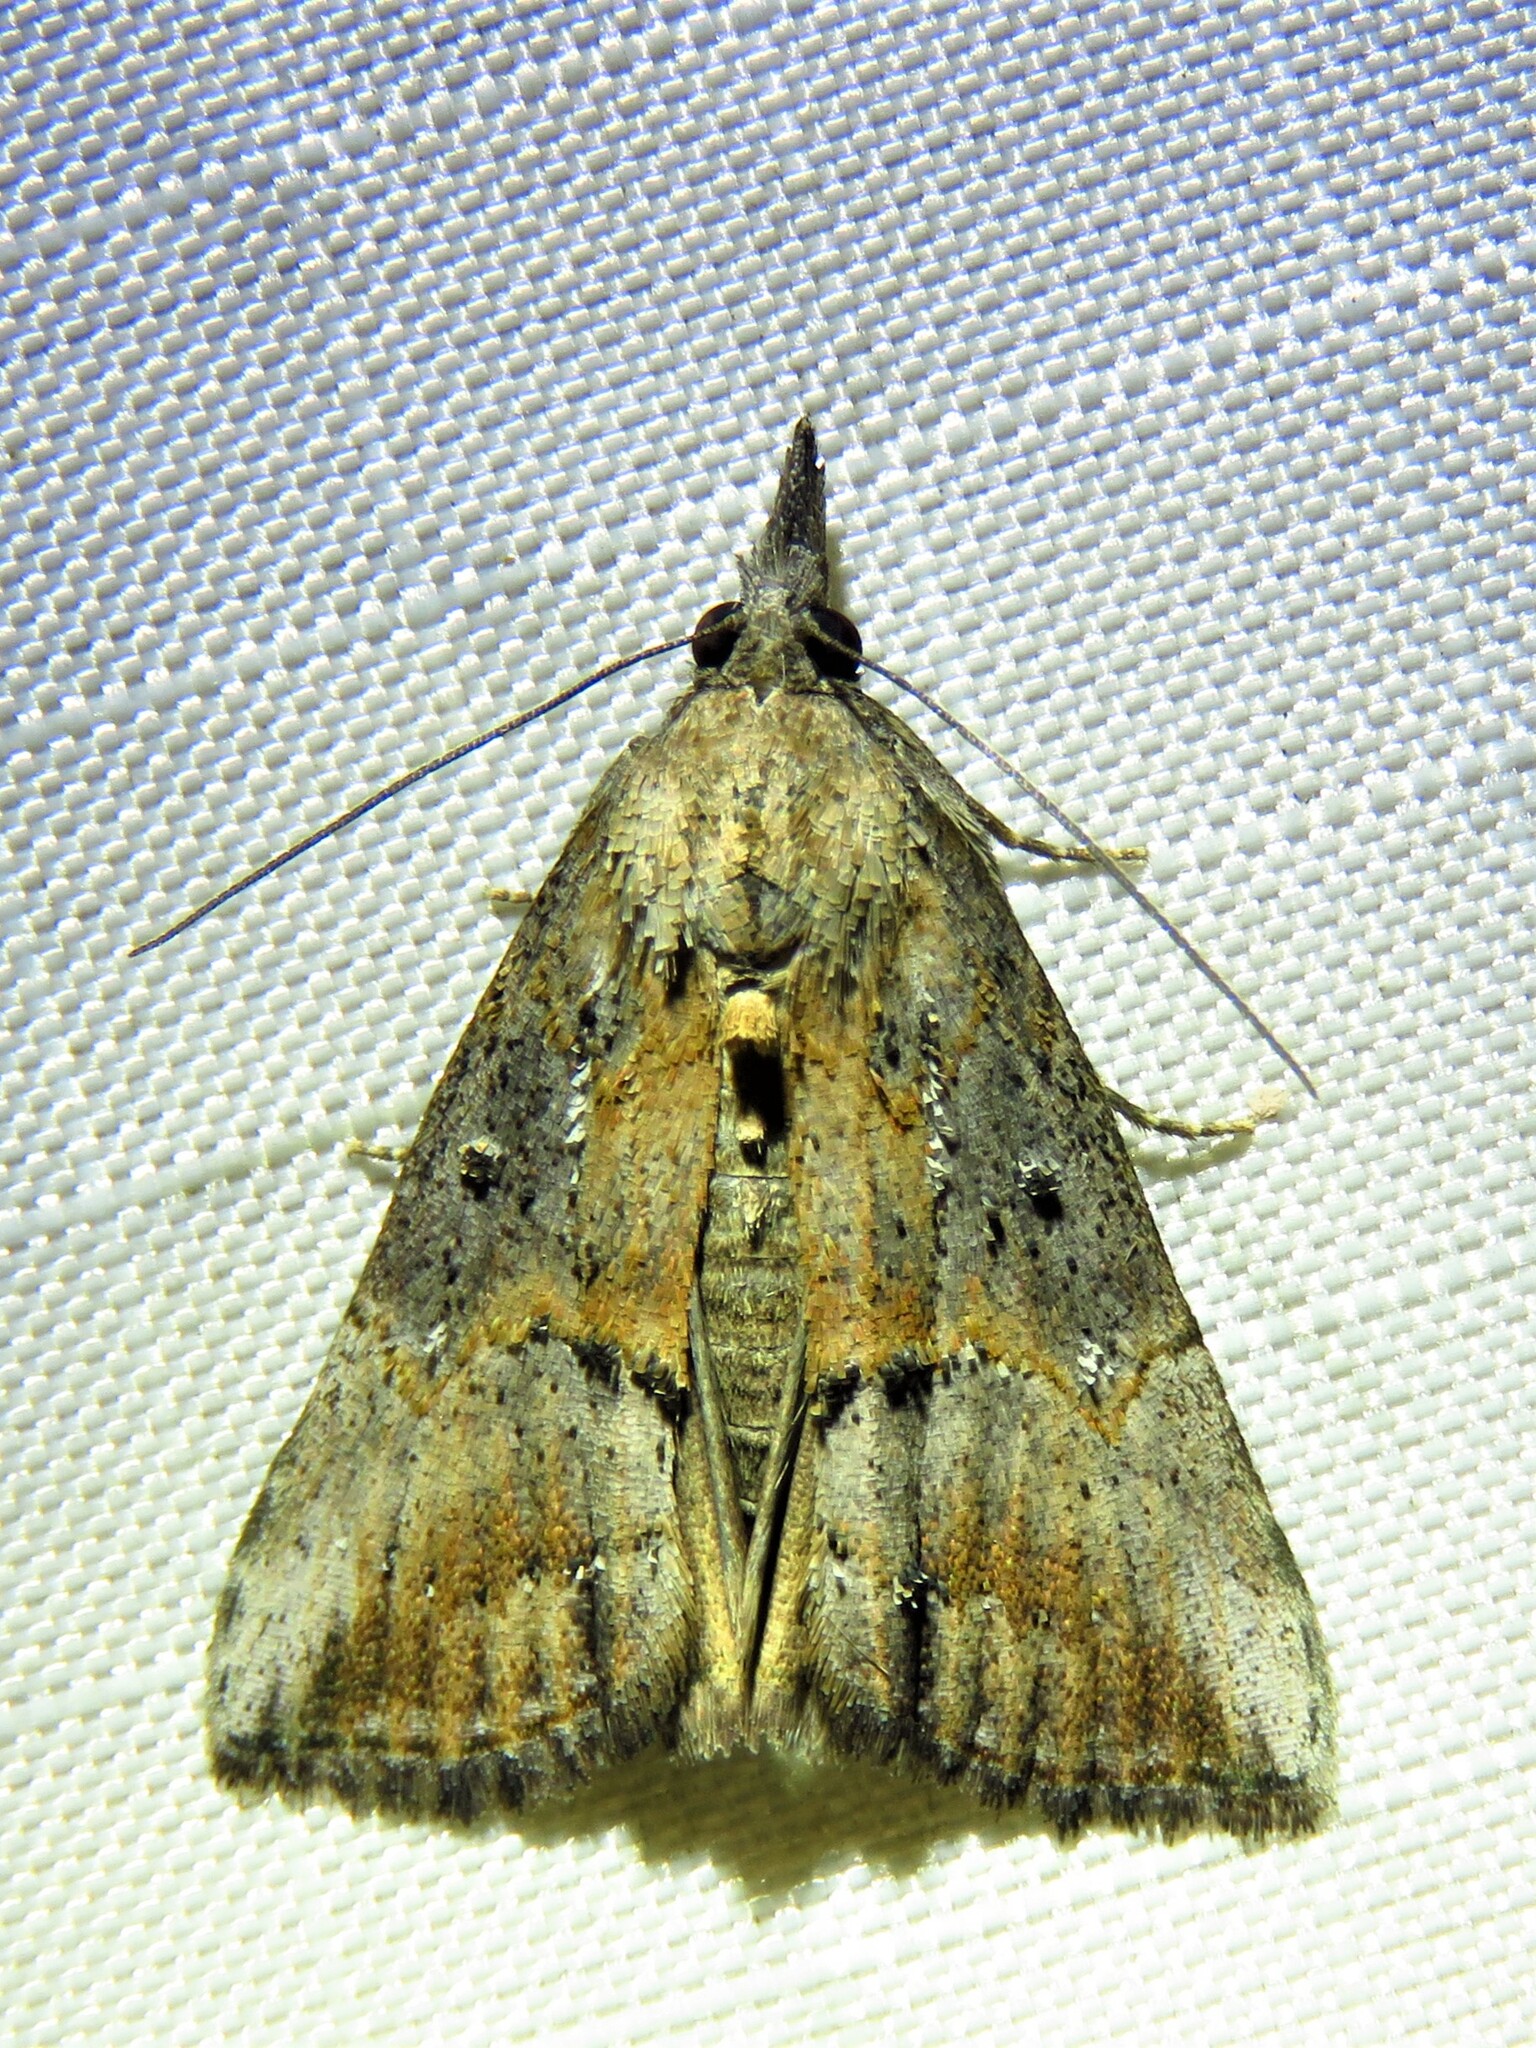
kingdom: Animalia
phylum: Arthropoda
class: Insecta
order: Lepidoptera
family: Erebidae
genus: Hypena
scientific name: Hypena scabra
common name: Green cloverworm
